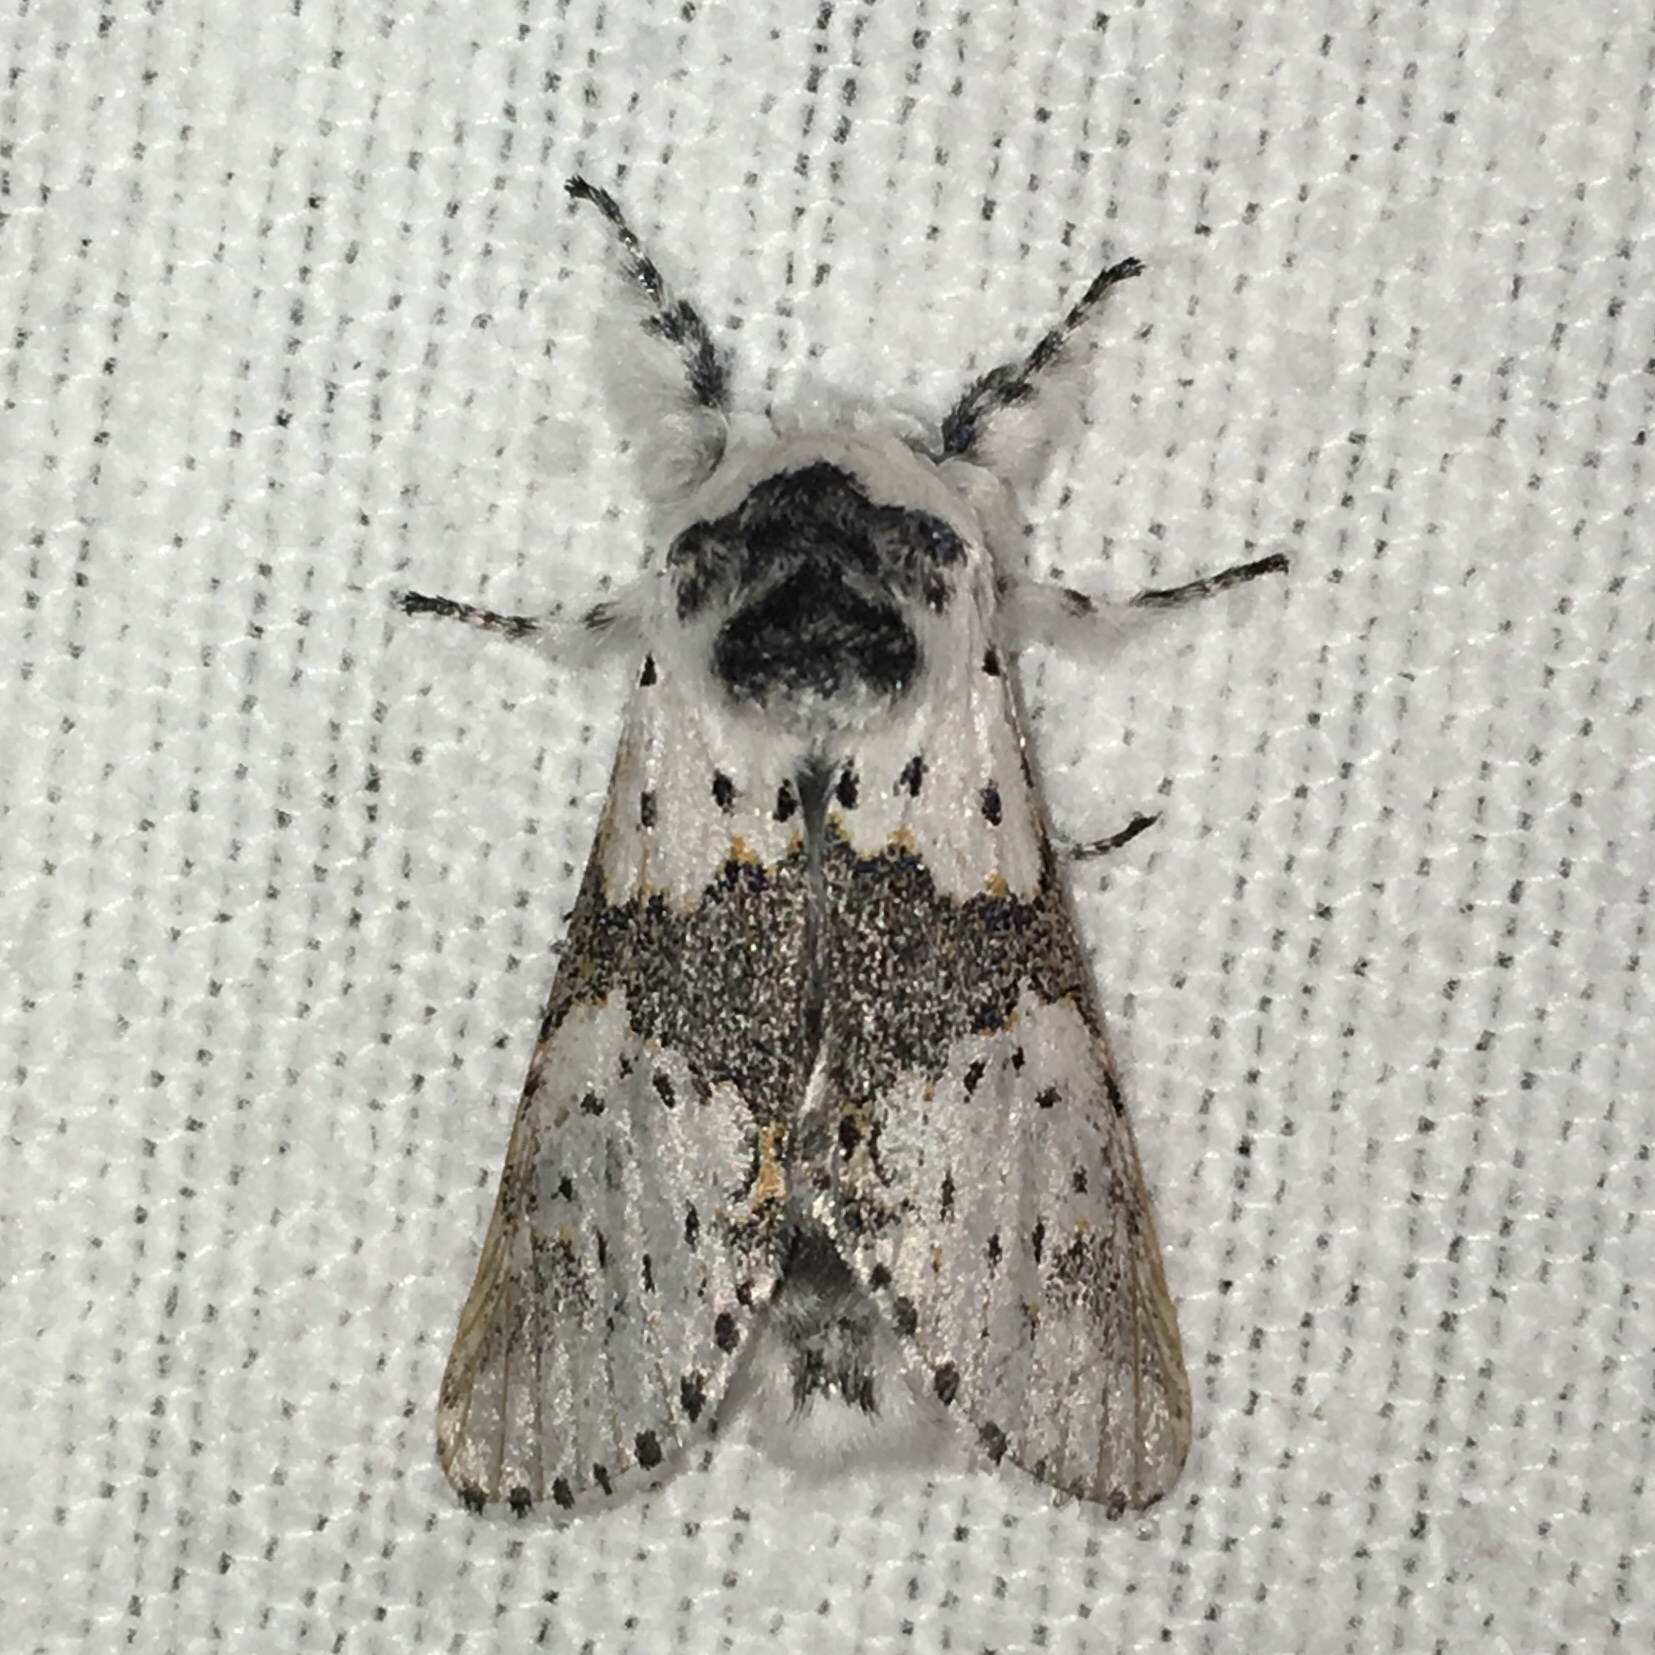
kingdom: Animalia
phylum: Arthropoda
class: Insecta
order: Lepidoptera
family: Notodontidae
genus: Furcula
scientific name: Furcula borealis
